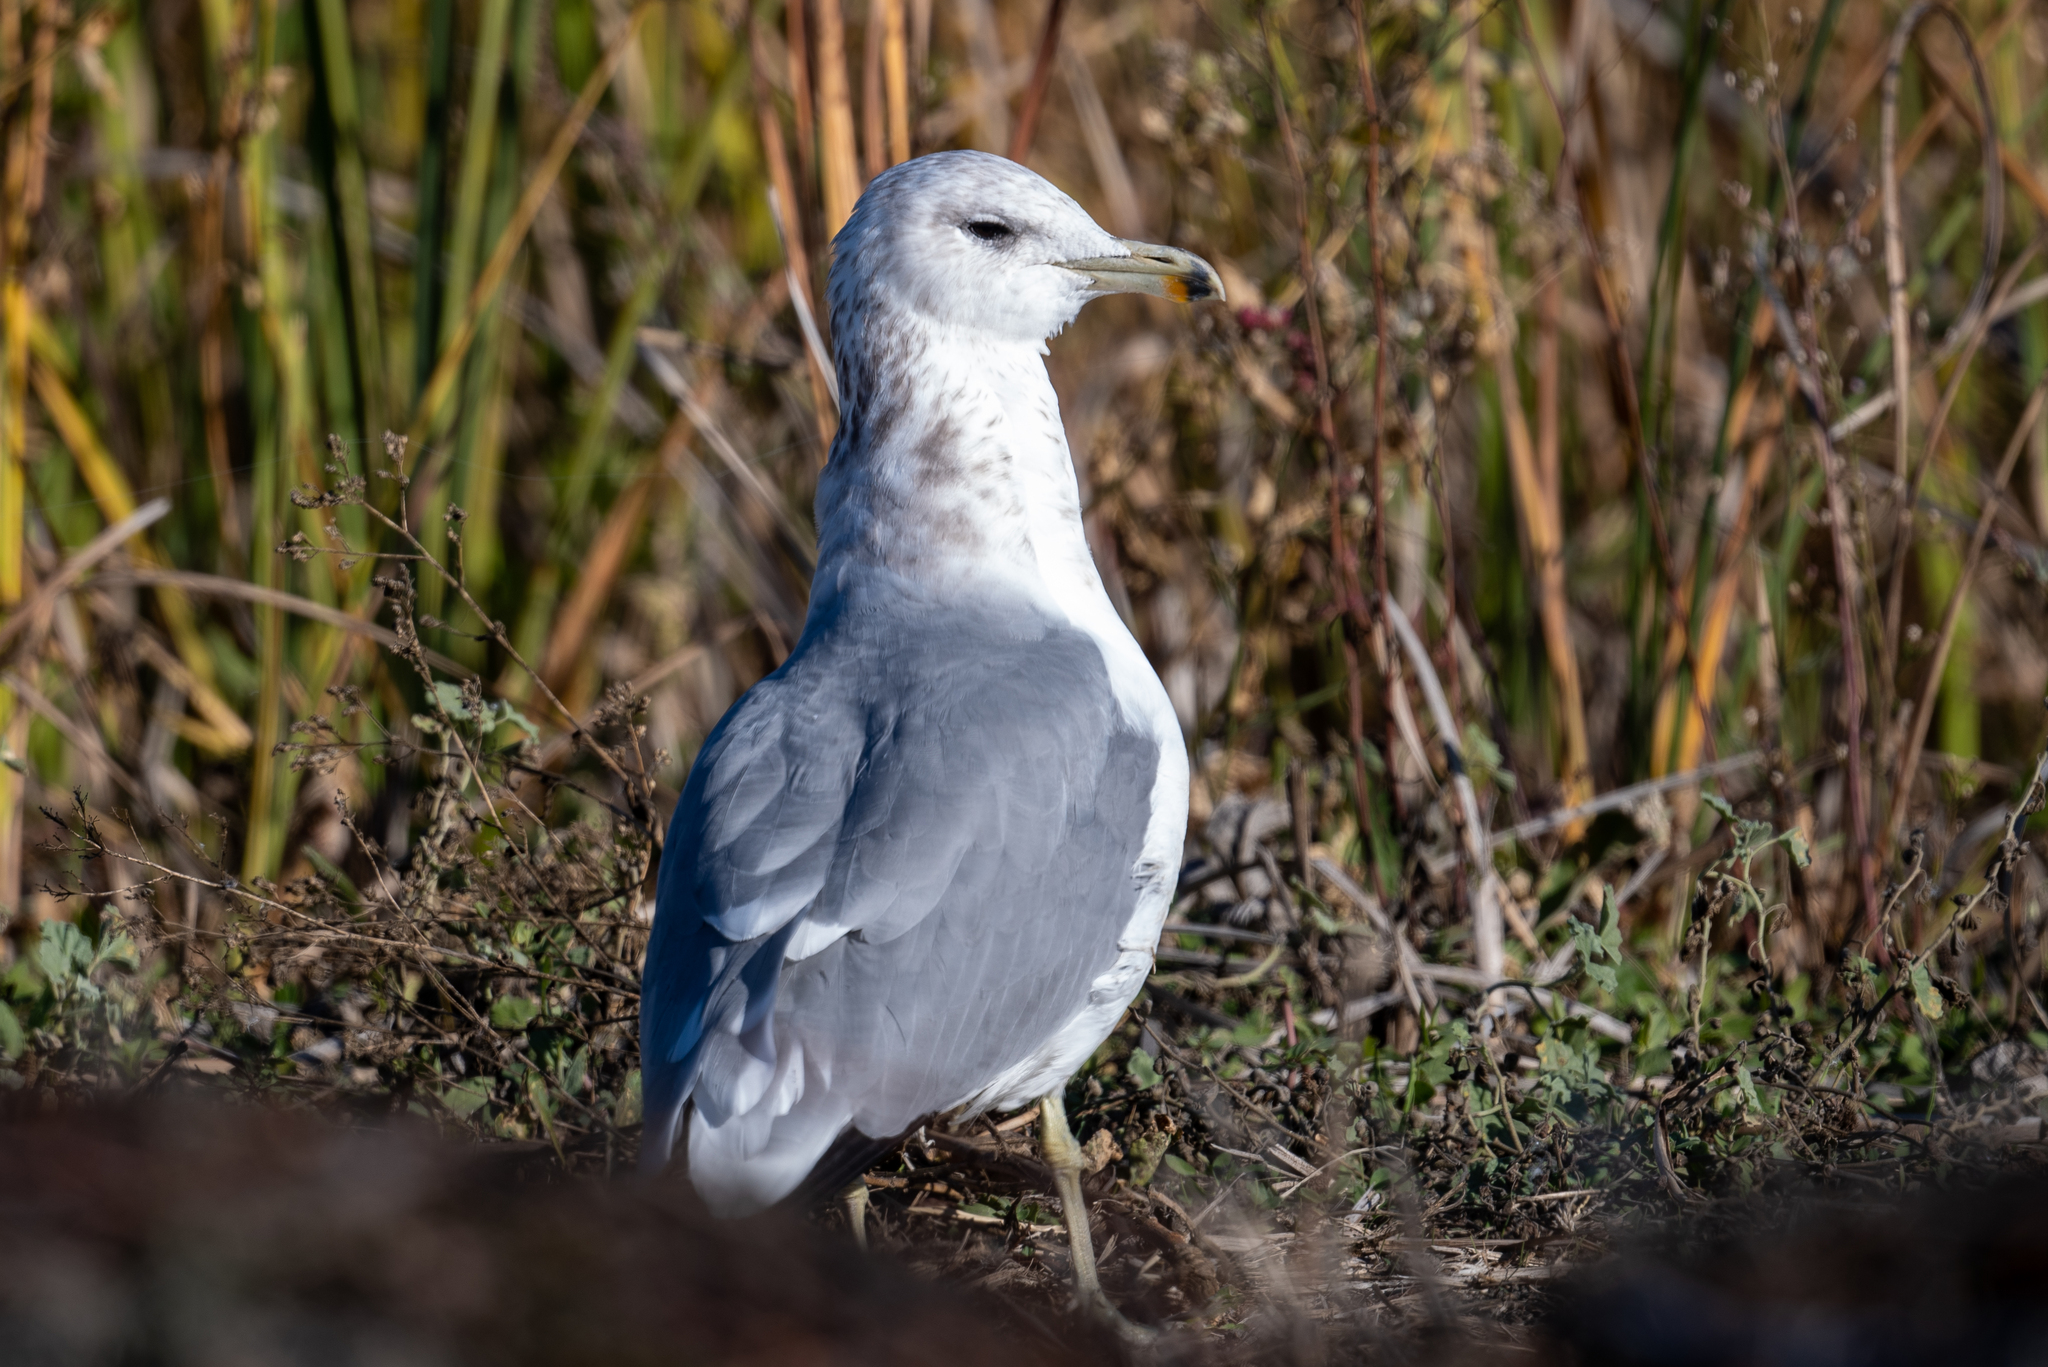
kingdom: Animalia
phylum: Chordata
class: Aves
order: Charadriiformes
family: Laridae
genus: Larus
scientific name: Larus californicus
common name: California gull
